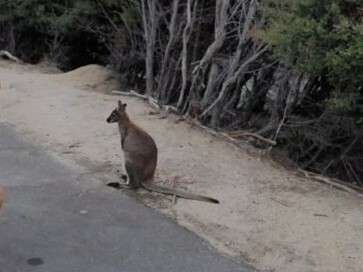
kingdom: Animalia
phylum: Chordata
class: Mammalia
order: Diprotodontia
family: Macropodidae
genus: Notamacropus
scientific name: Notamacropus rufogriseus
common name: Red-necked wallaby
